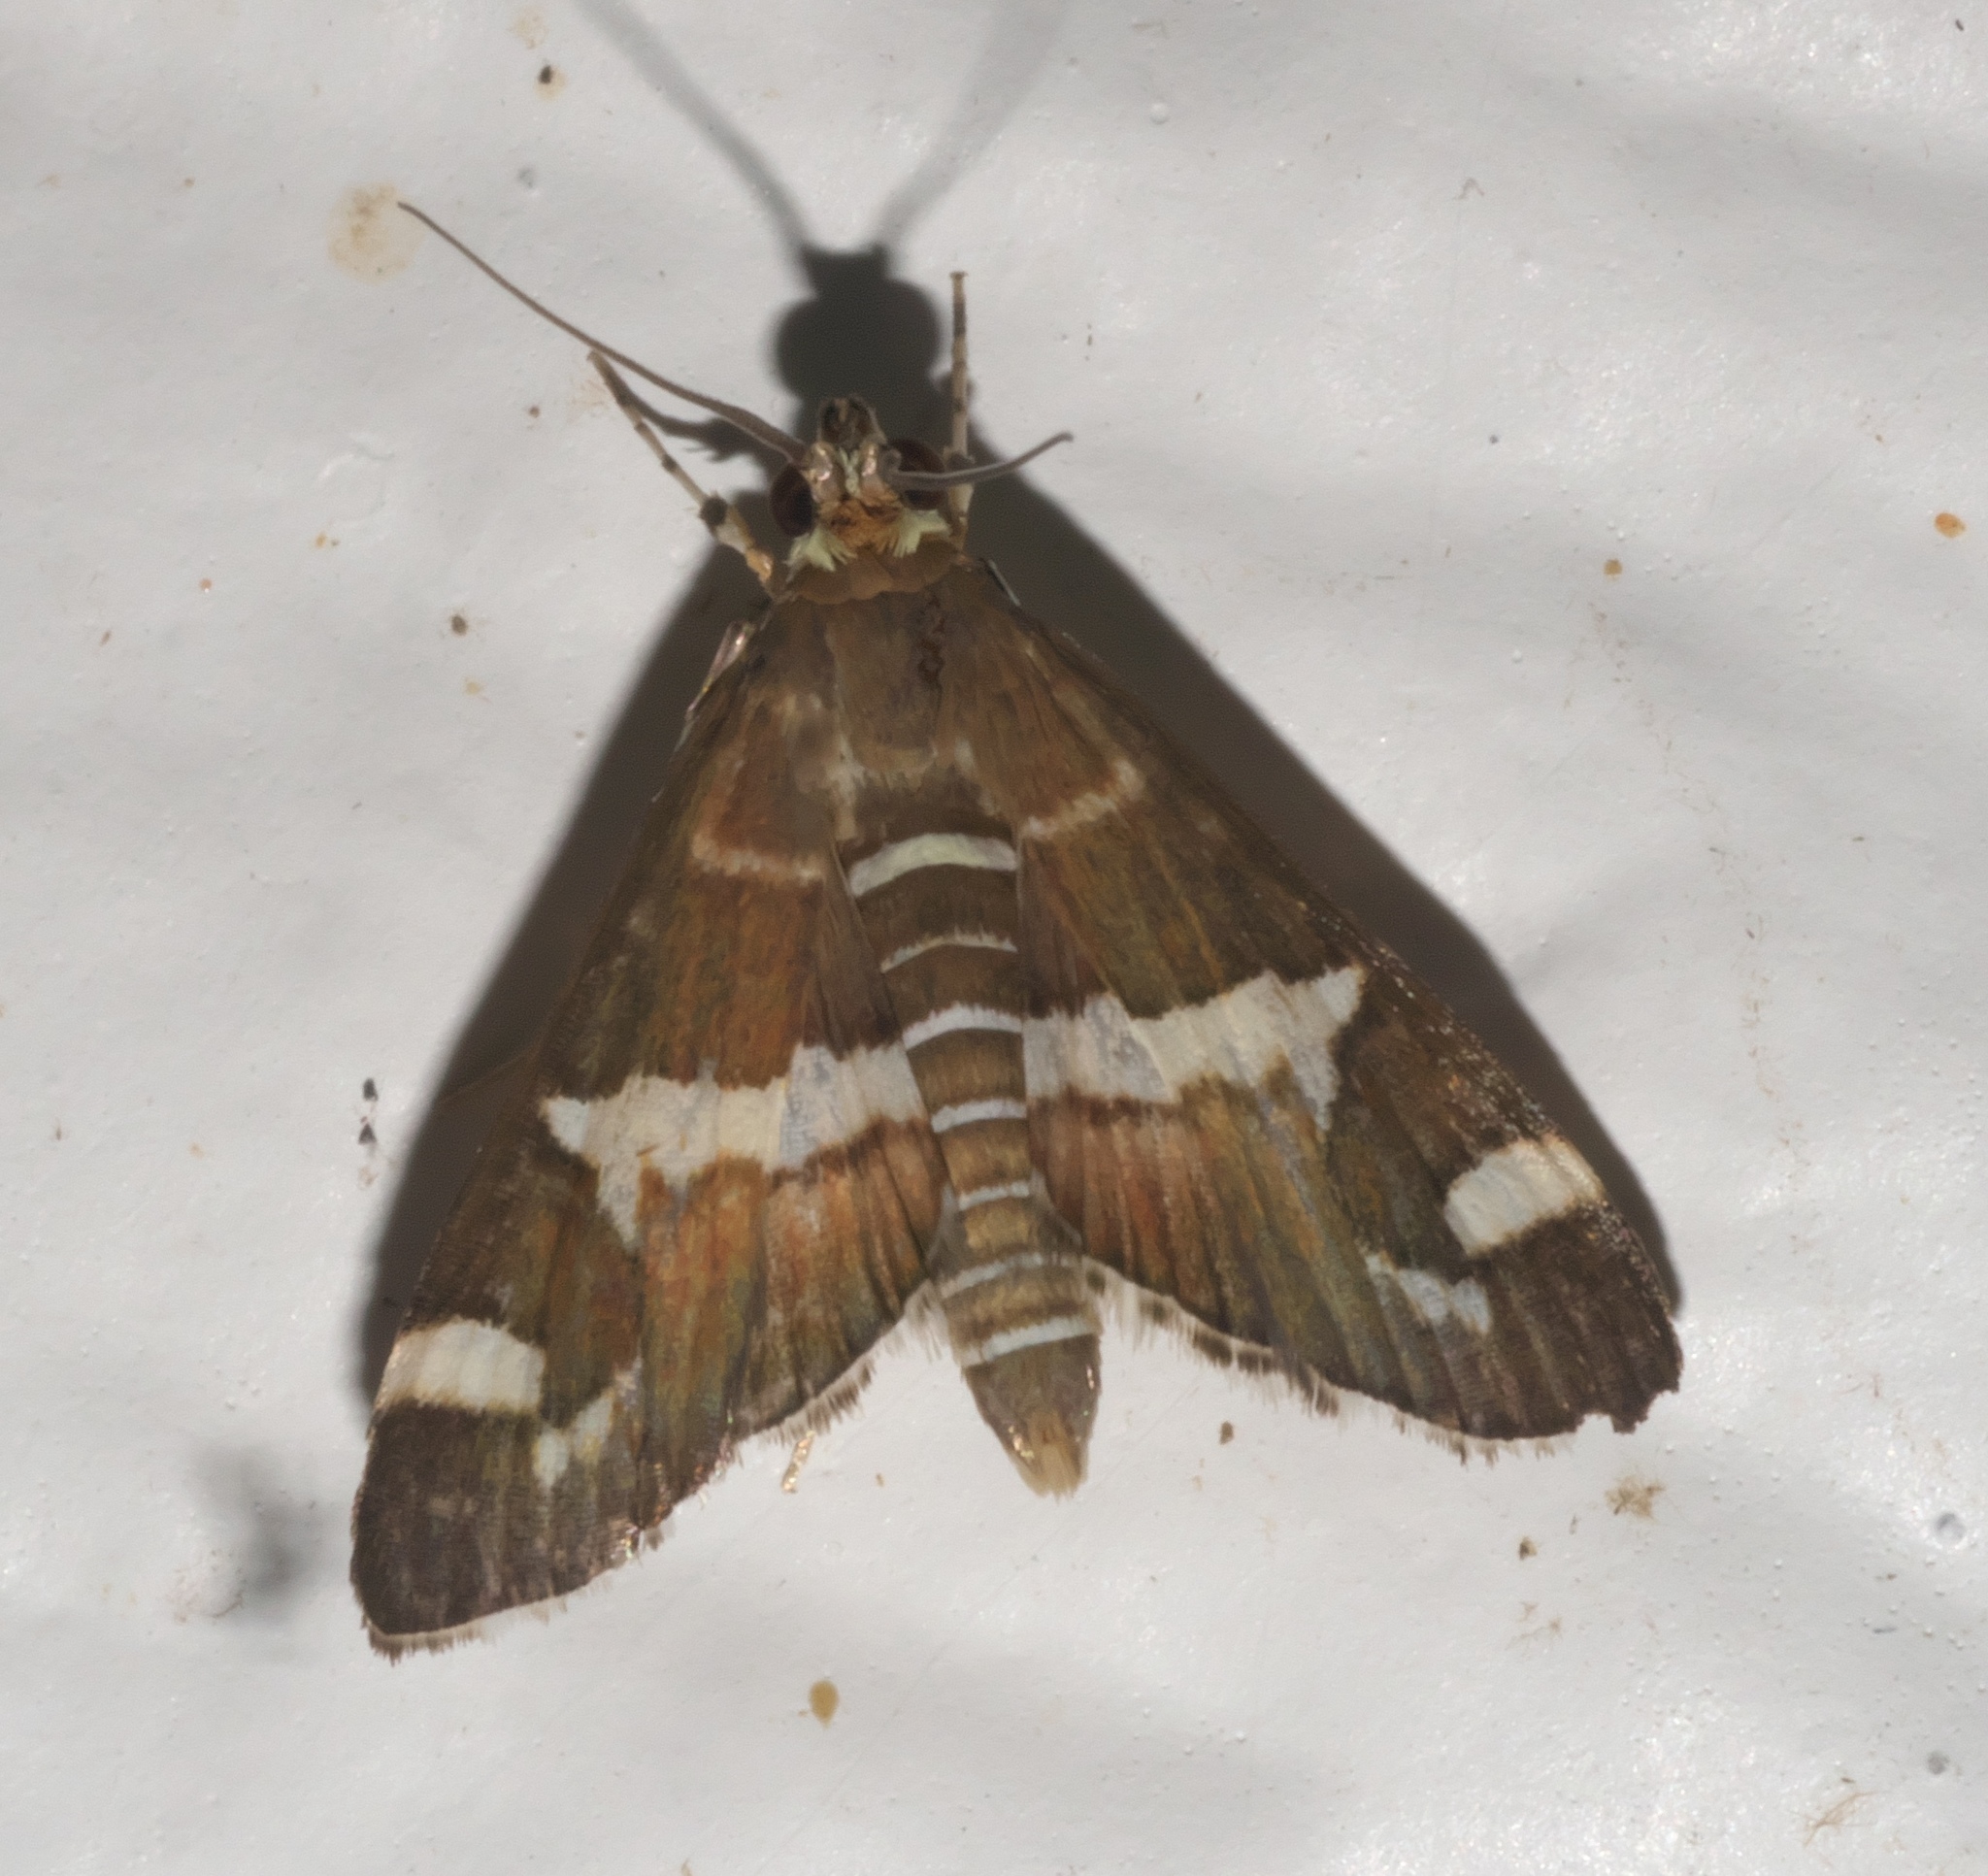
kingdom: Animalia
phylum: Arthropoda
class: Insecta
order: Lepidoptera
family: Crambidae
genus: Spoladea
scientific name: Spoladea recurvalis
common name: Beet webworm moth
